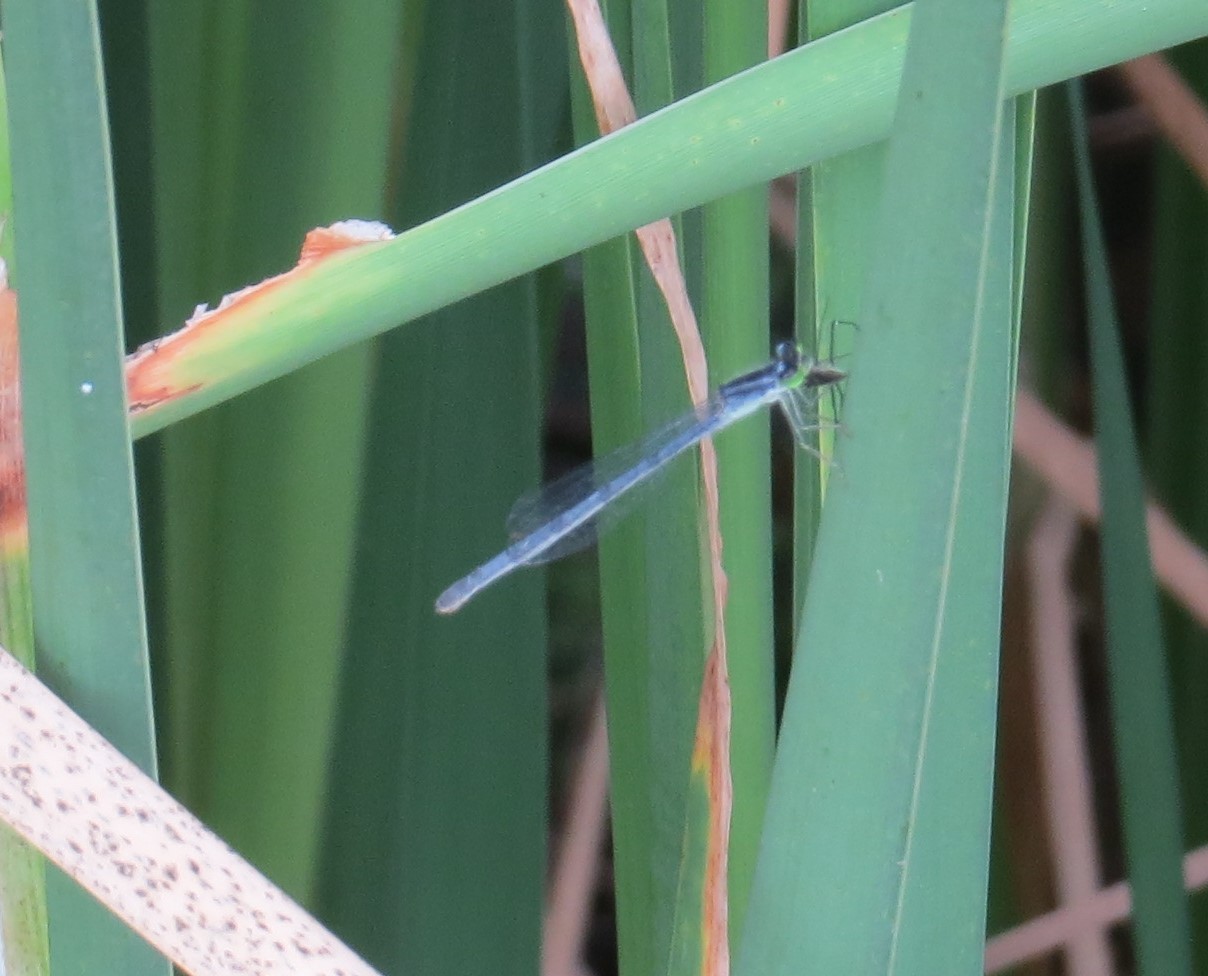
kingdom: Animalia
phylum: Arthropoda
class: Insecta
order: Odonata
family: Coenagrionidae
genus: Ischnura
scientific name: Ischnura verticalis
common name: Eastern forktail
